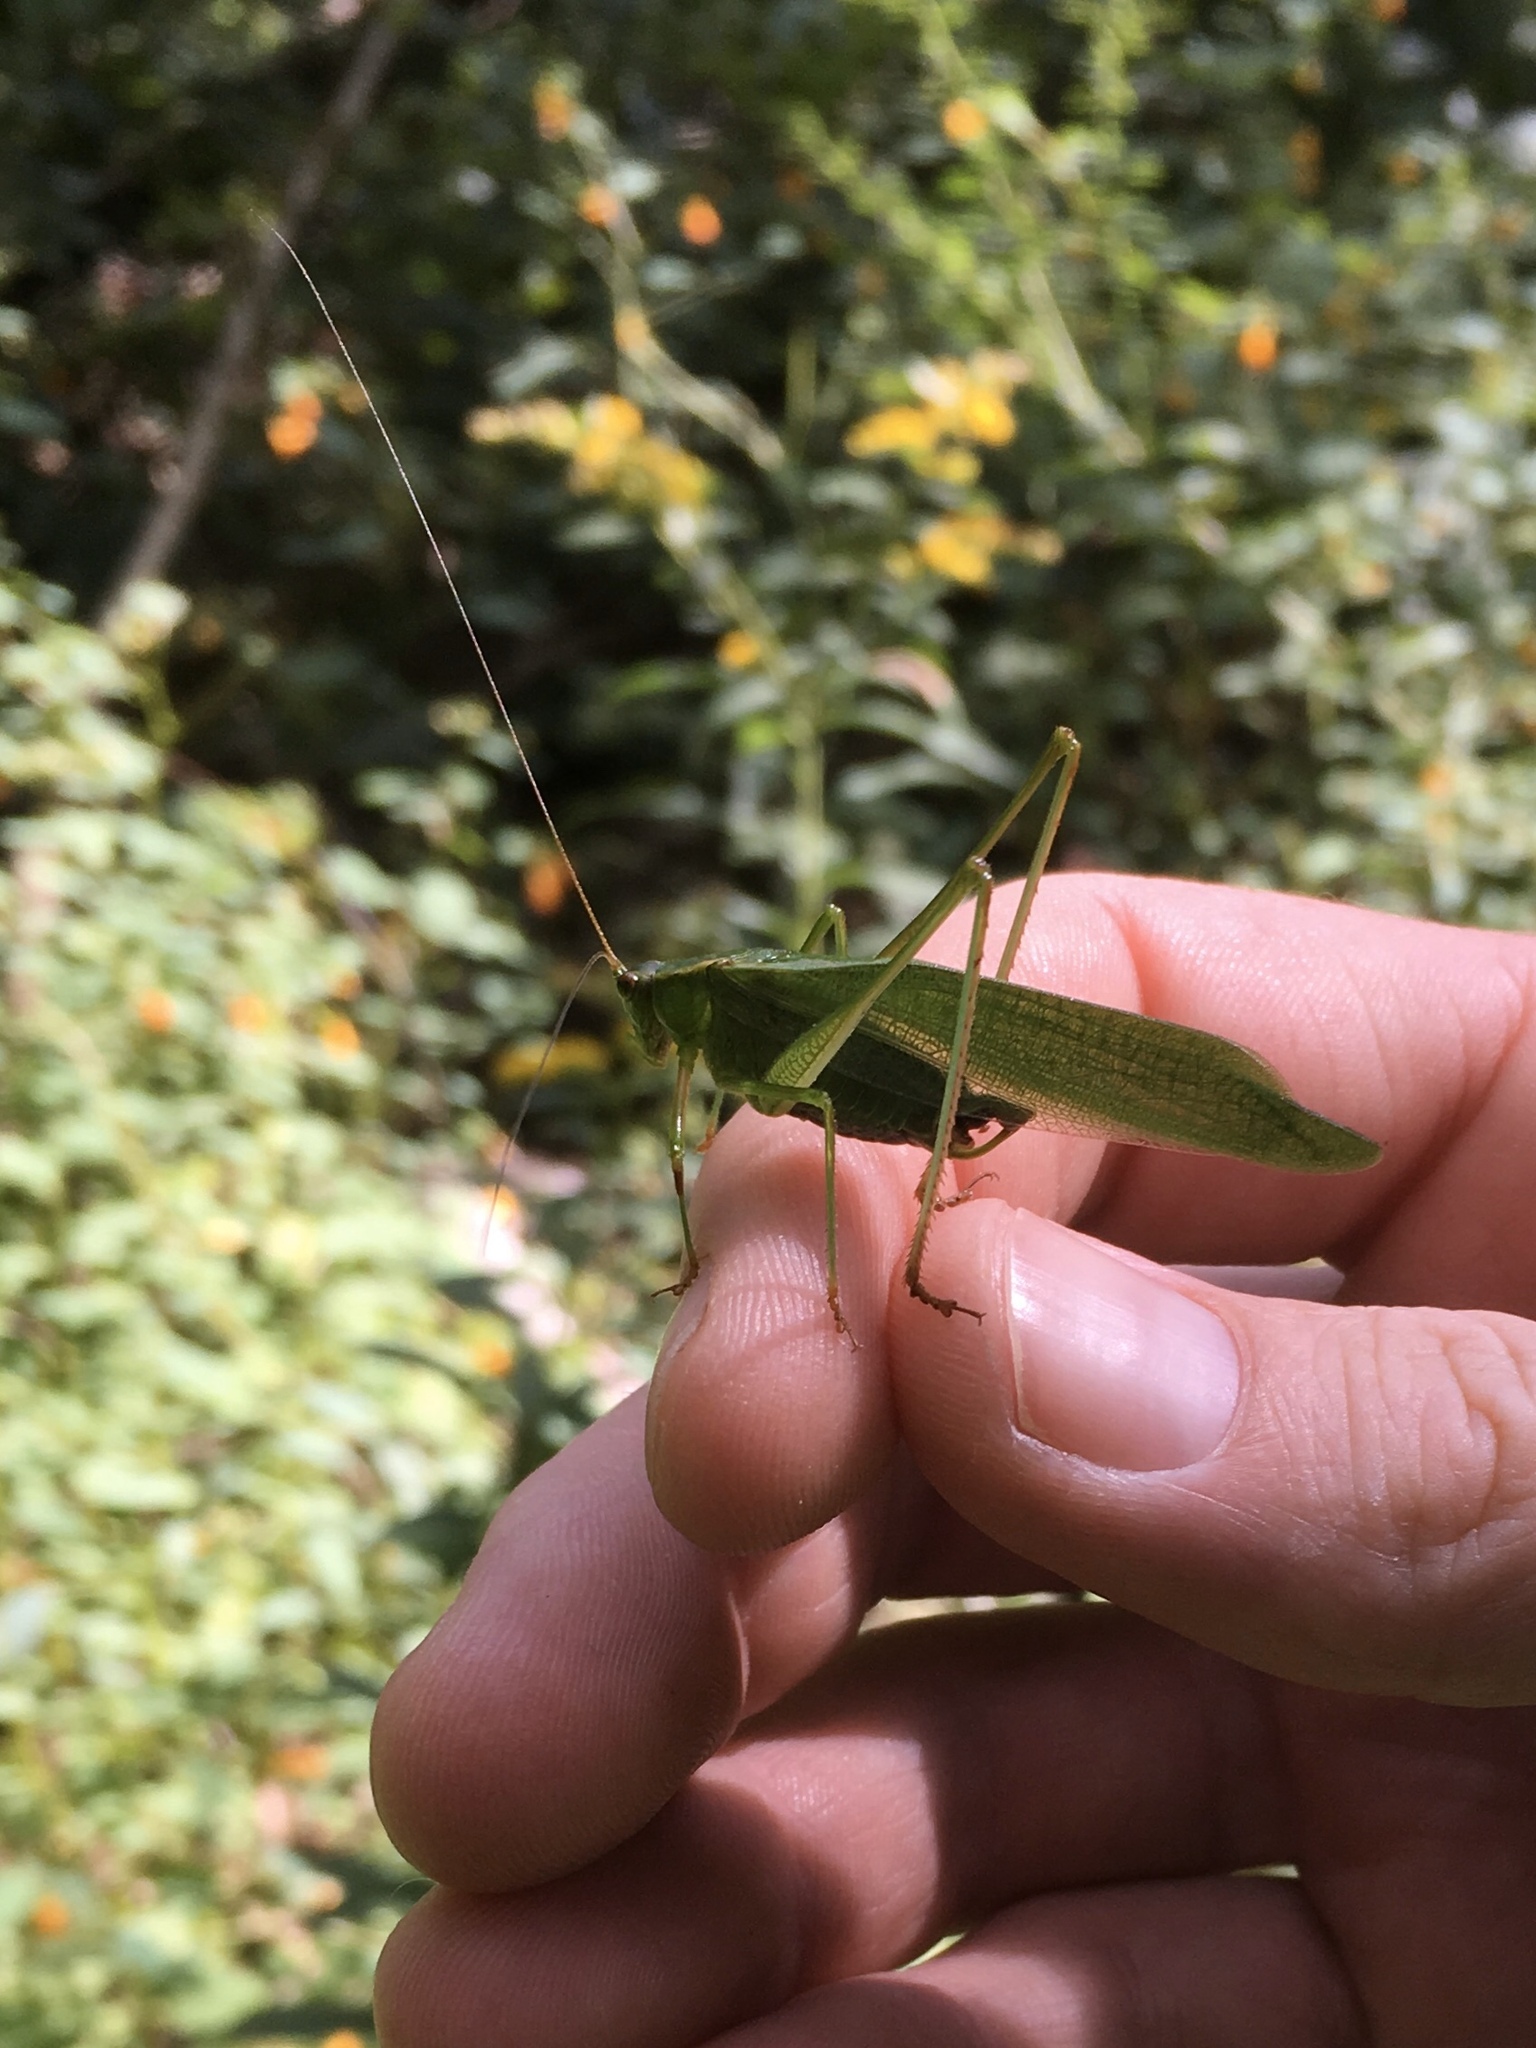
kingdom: Animalia
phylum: Arthropoda
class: Insecta
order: Orthoptera
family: Tettigoniidae
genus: Scudderia
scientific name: Scudderia furcata
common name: Fork-tailed bush katydid
